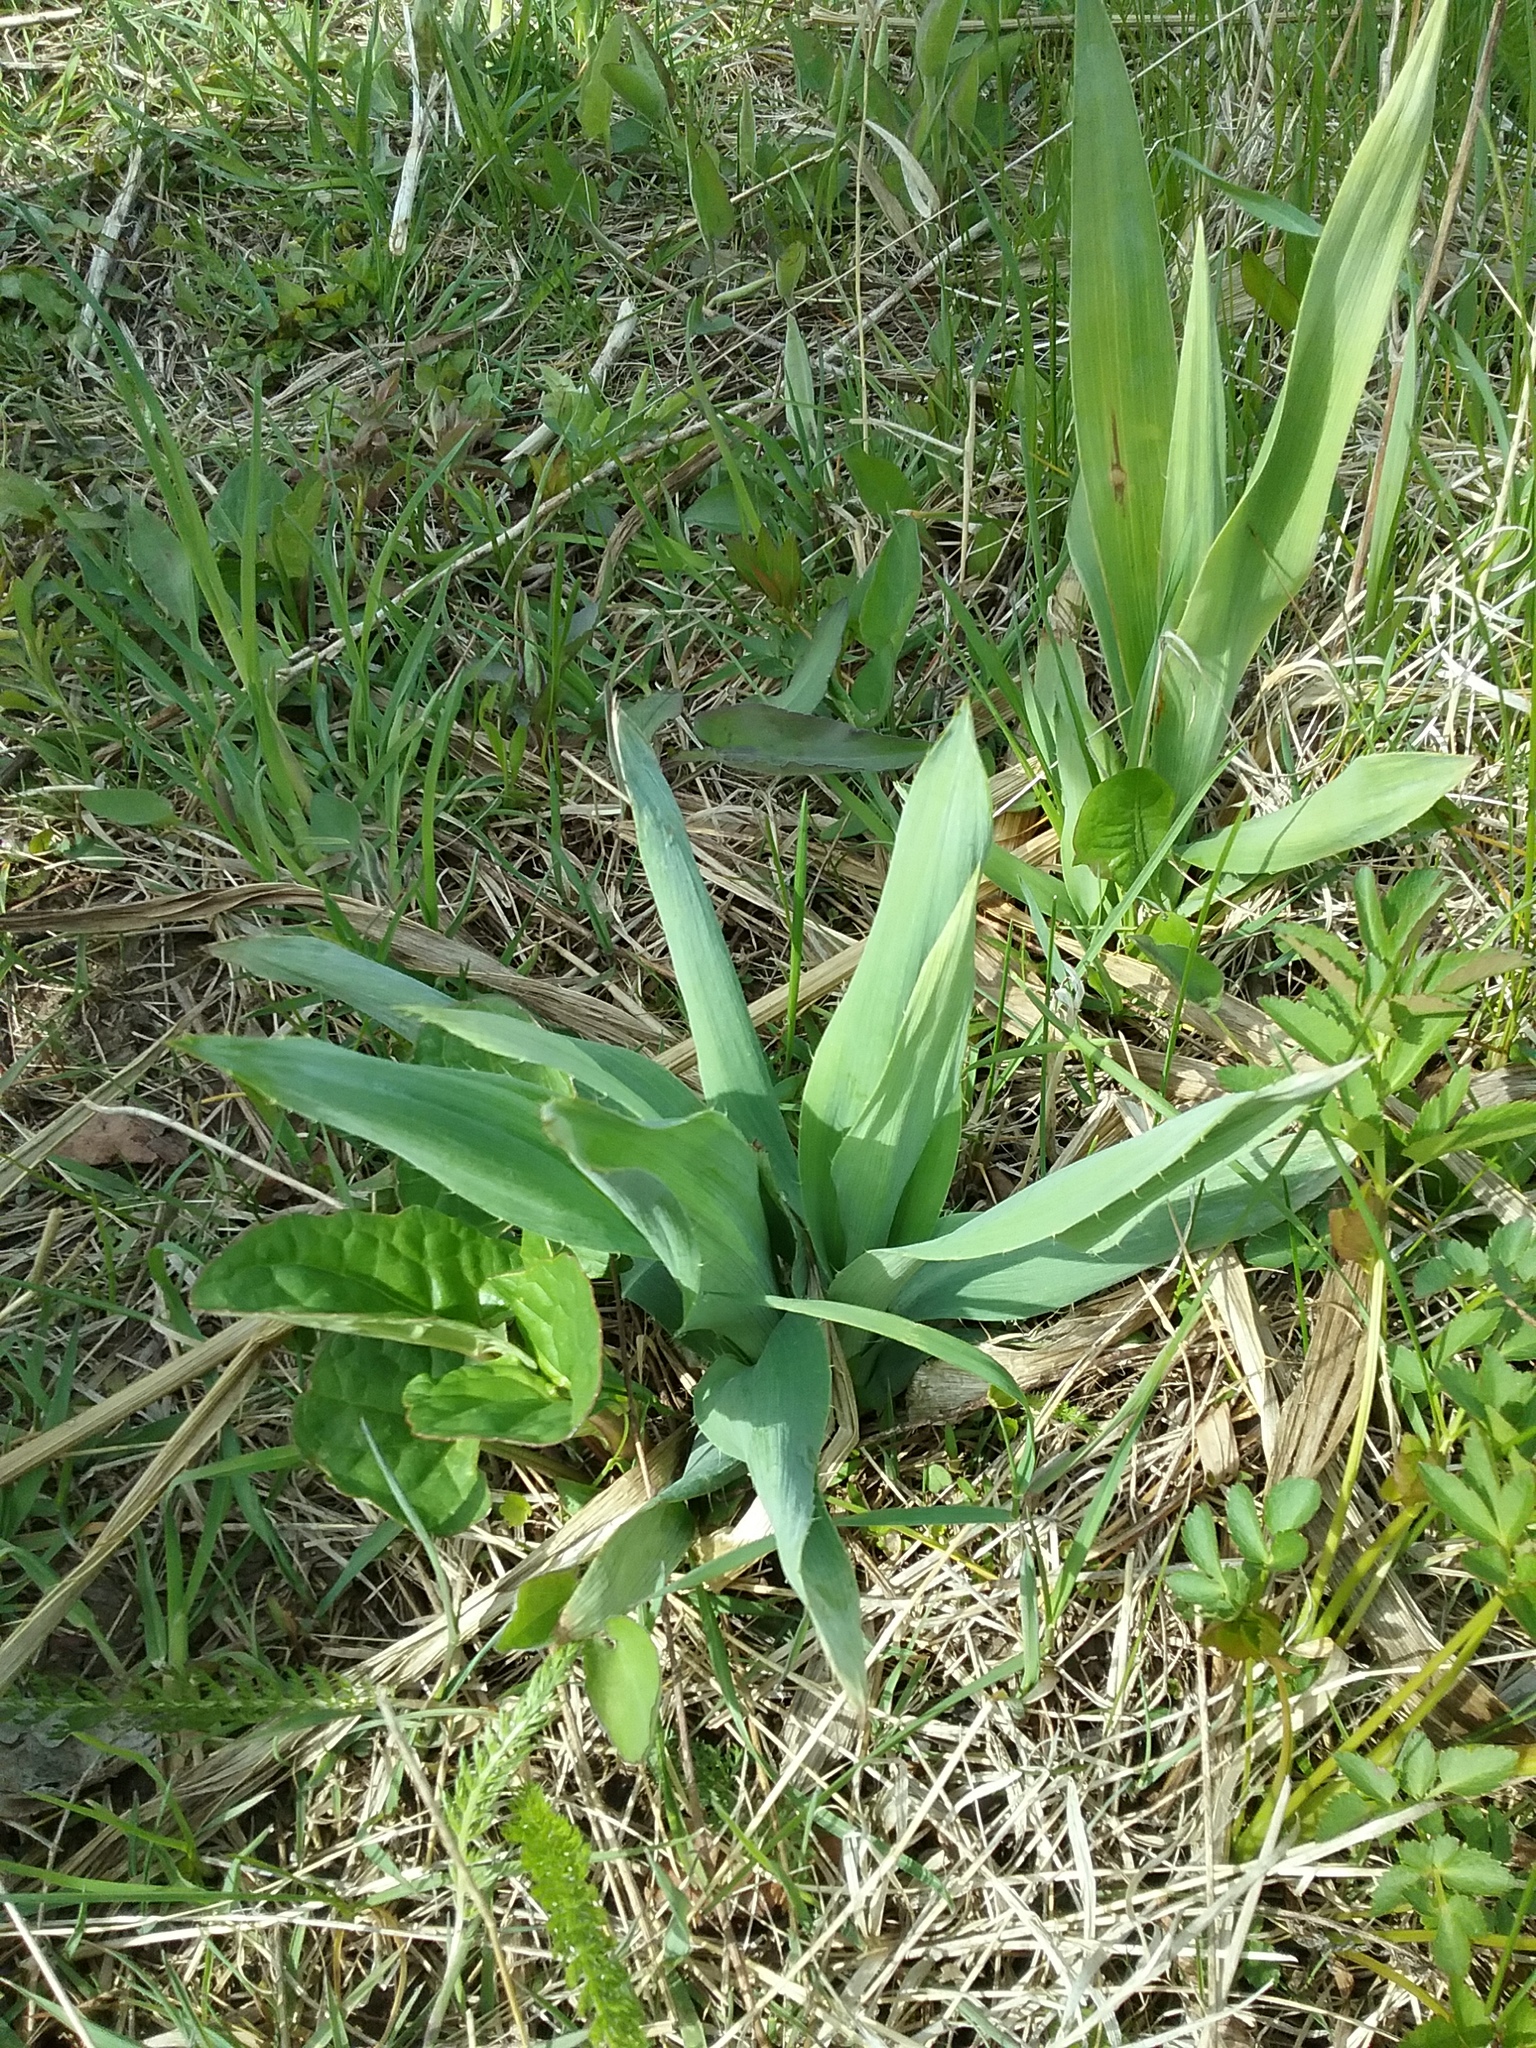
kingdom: Plantae
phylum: Tracheophyta
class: Magnoliopsida
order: Apiales
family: Apiaceae
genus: Eryngium
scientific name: Eryngium yuccifolium
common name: Button eryngo
